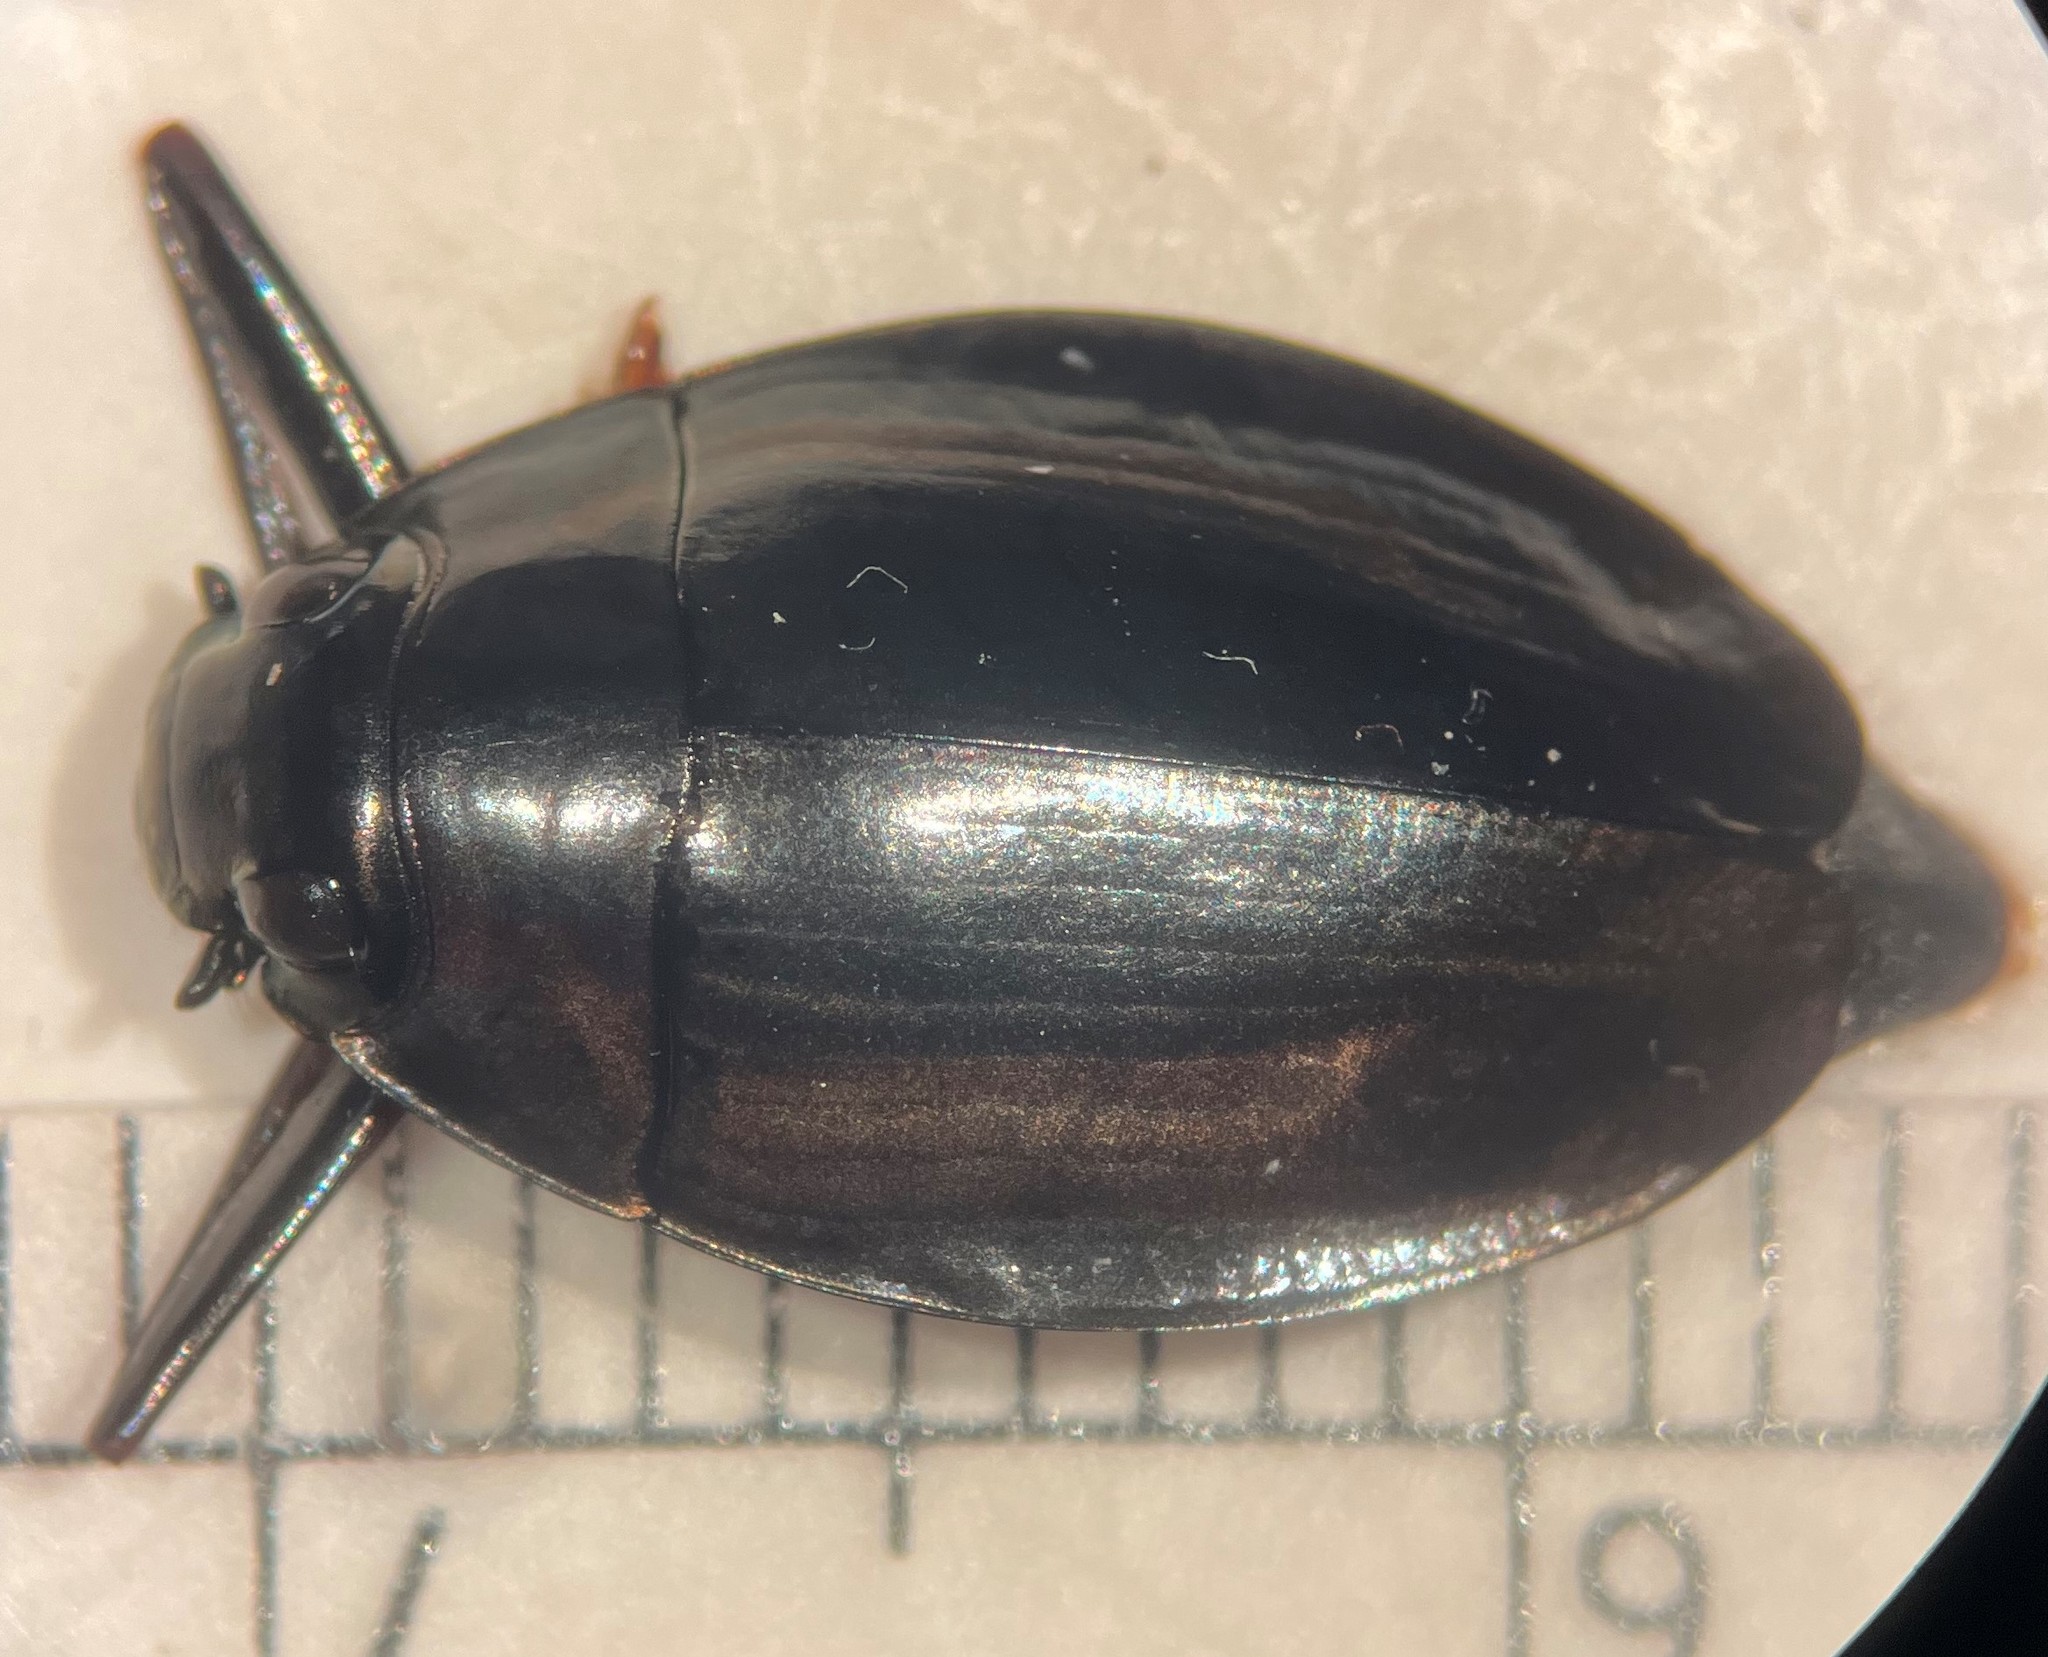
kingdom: Animalia
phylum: Arthropoda
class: Insecta
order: Coleoptera
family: Gyrinidae
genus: Dineutus
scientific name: Dineutus ciliatus
